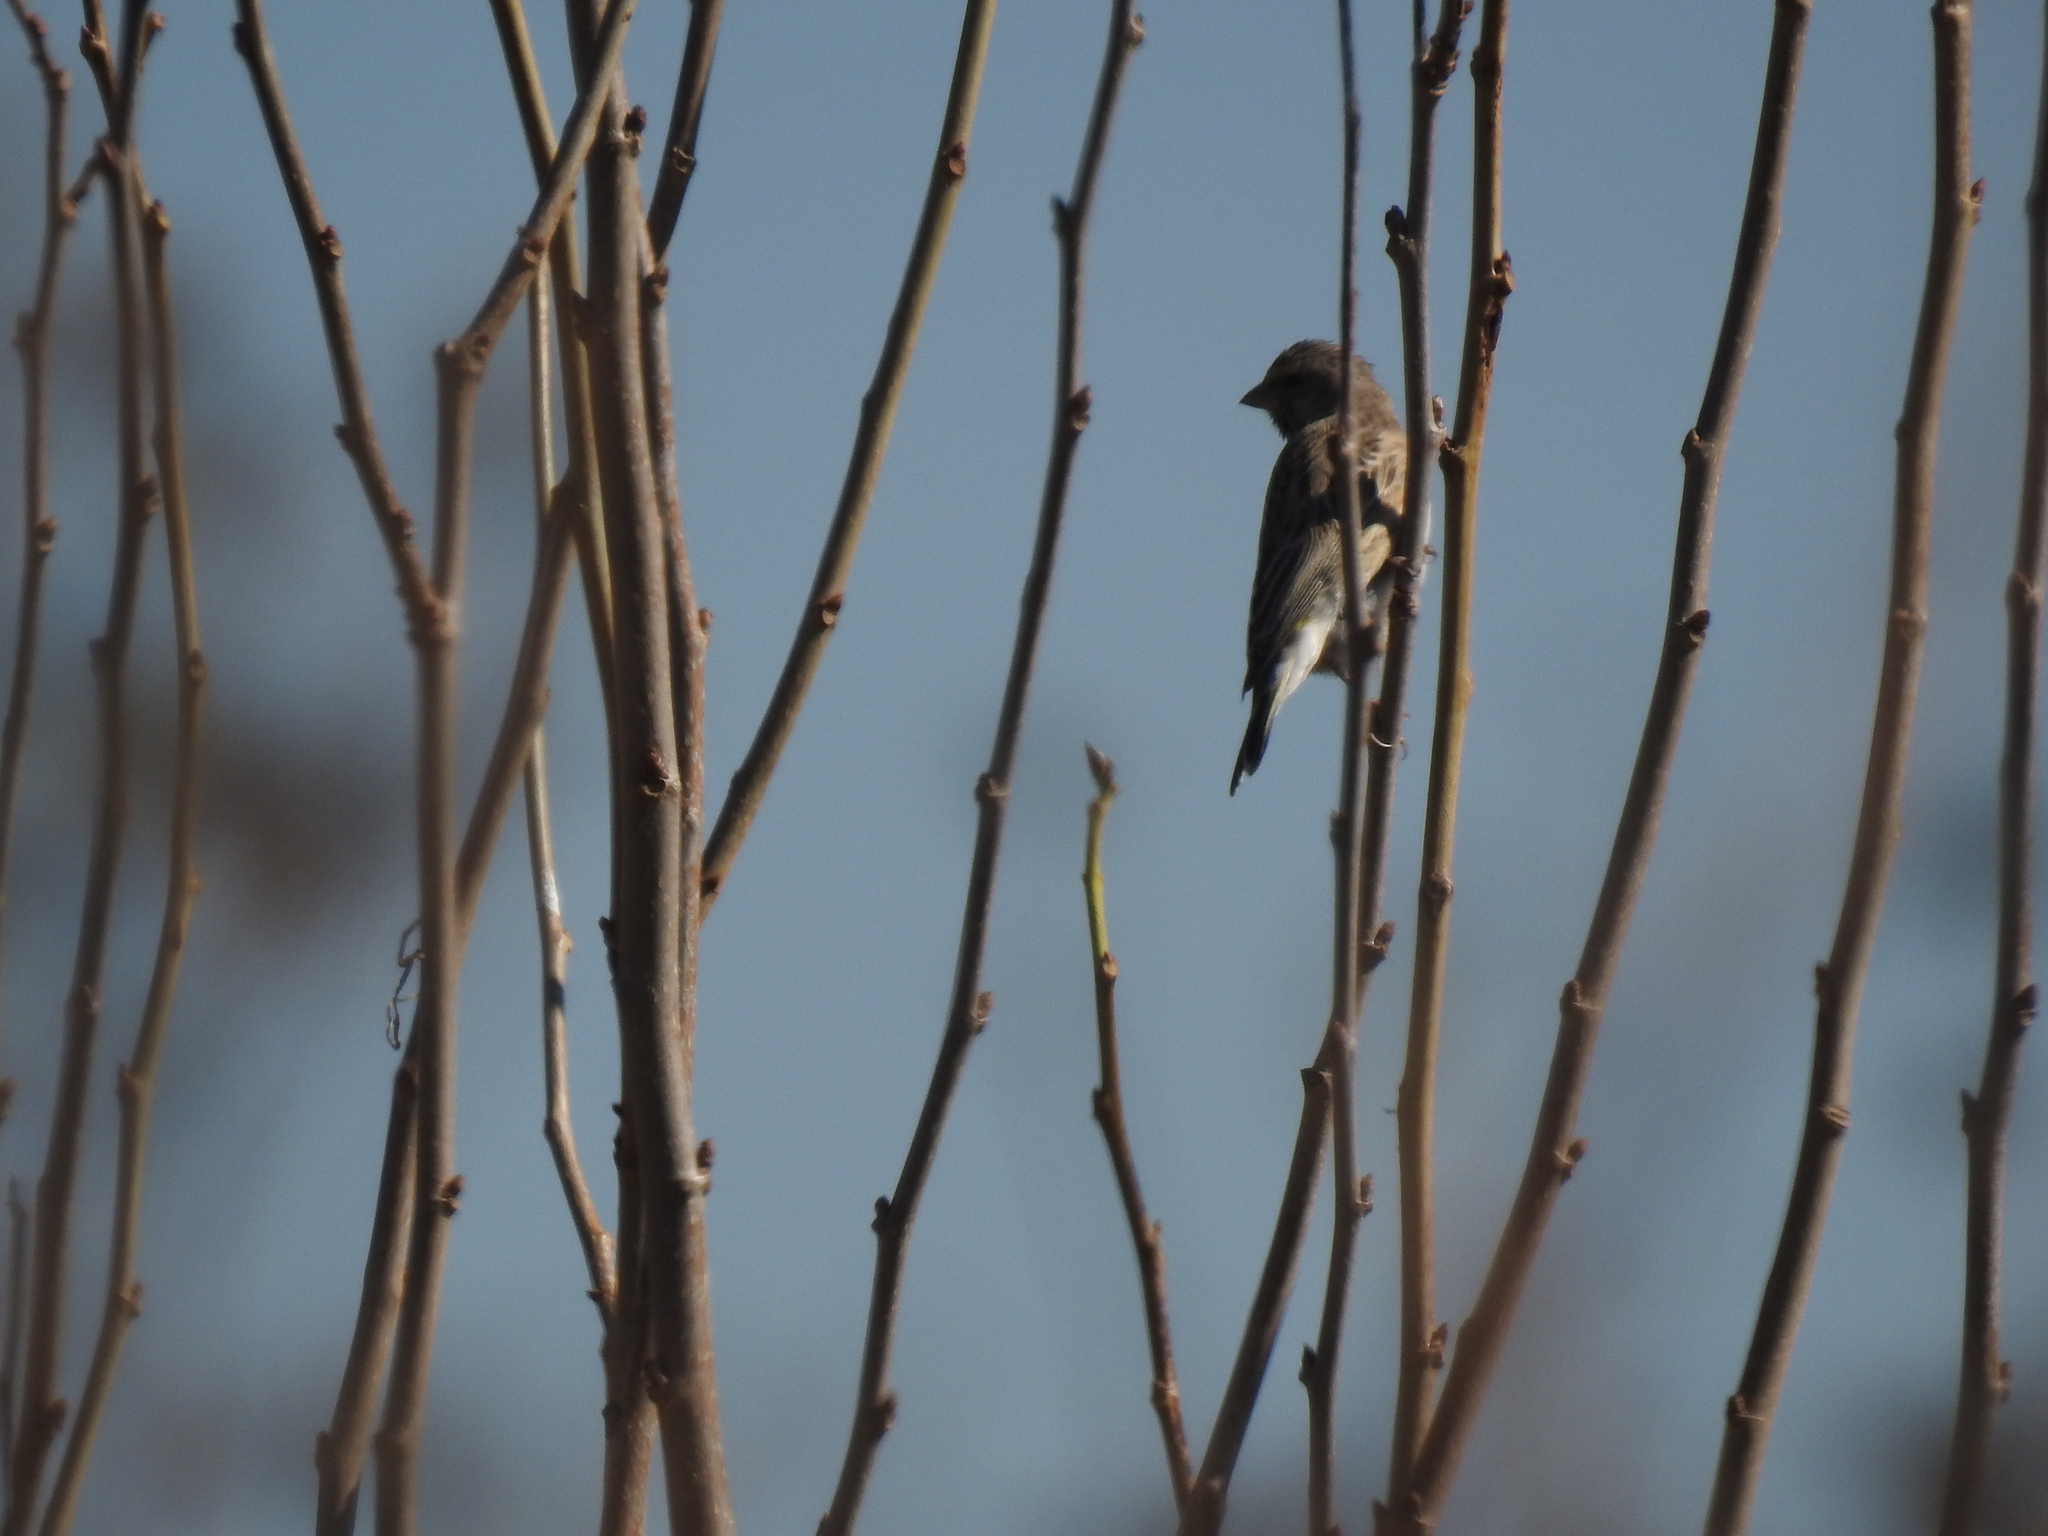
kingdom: Animalia
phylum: Chordata
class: Aves
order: Passeriformes
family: Fringillidae
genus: Crithagra
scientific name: Crithagra atrogularis
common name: Black-throated canary
